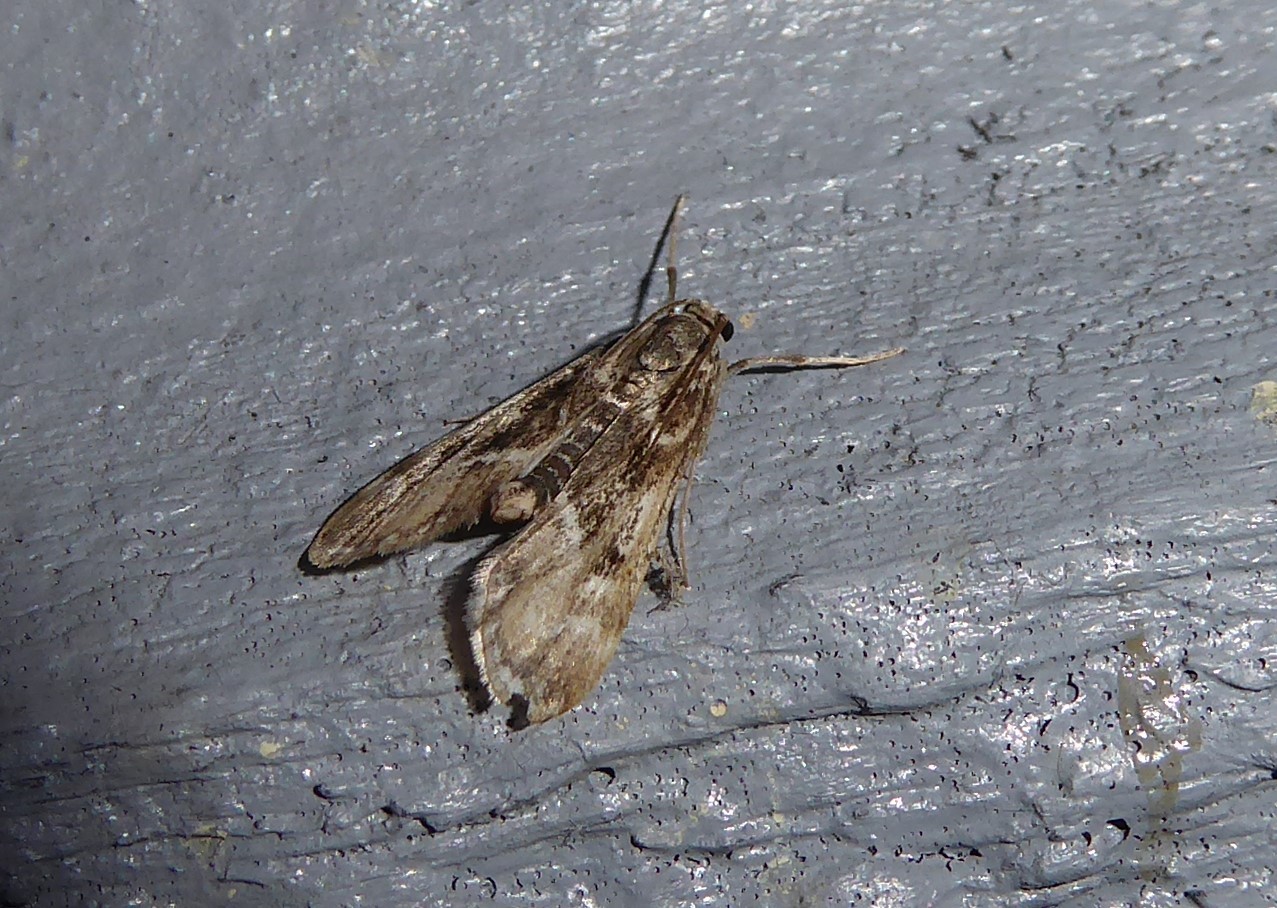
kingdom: Animalia
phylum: Arthropoda
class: Insecta
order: Lepidoptera
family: Crambidae
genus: Hygraula
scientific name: Hygraula nitens
